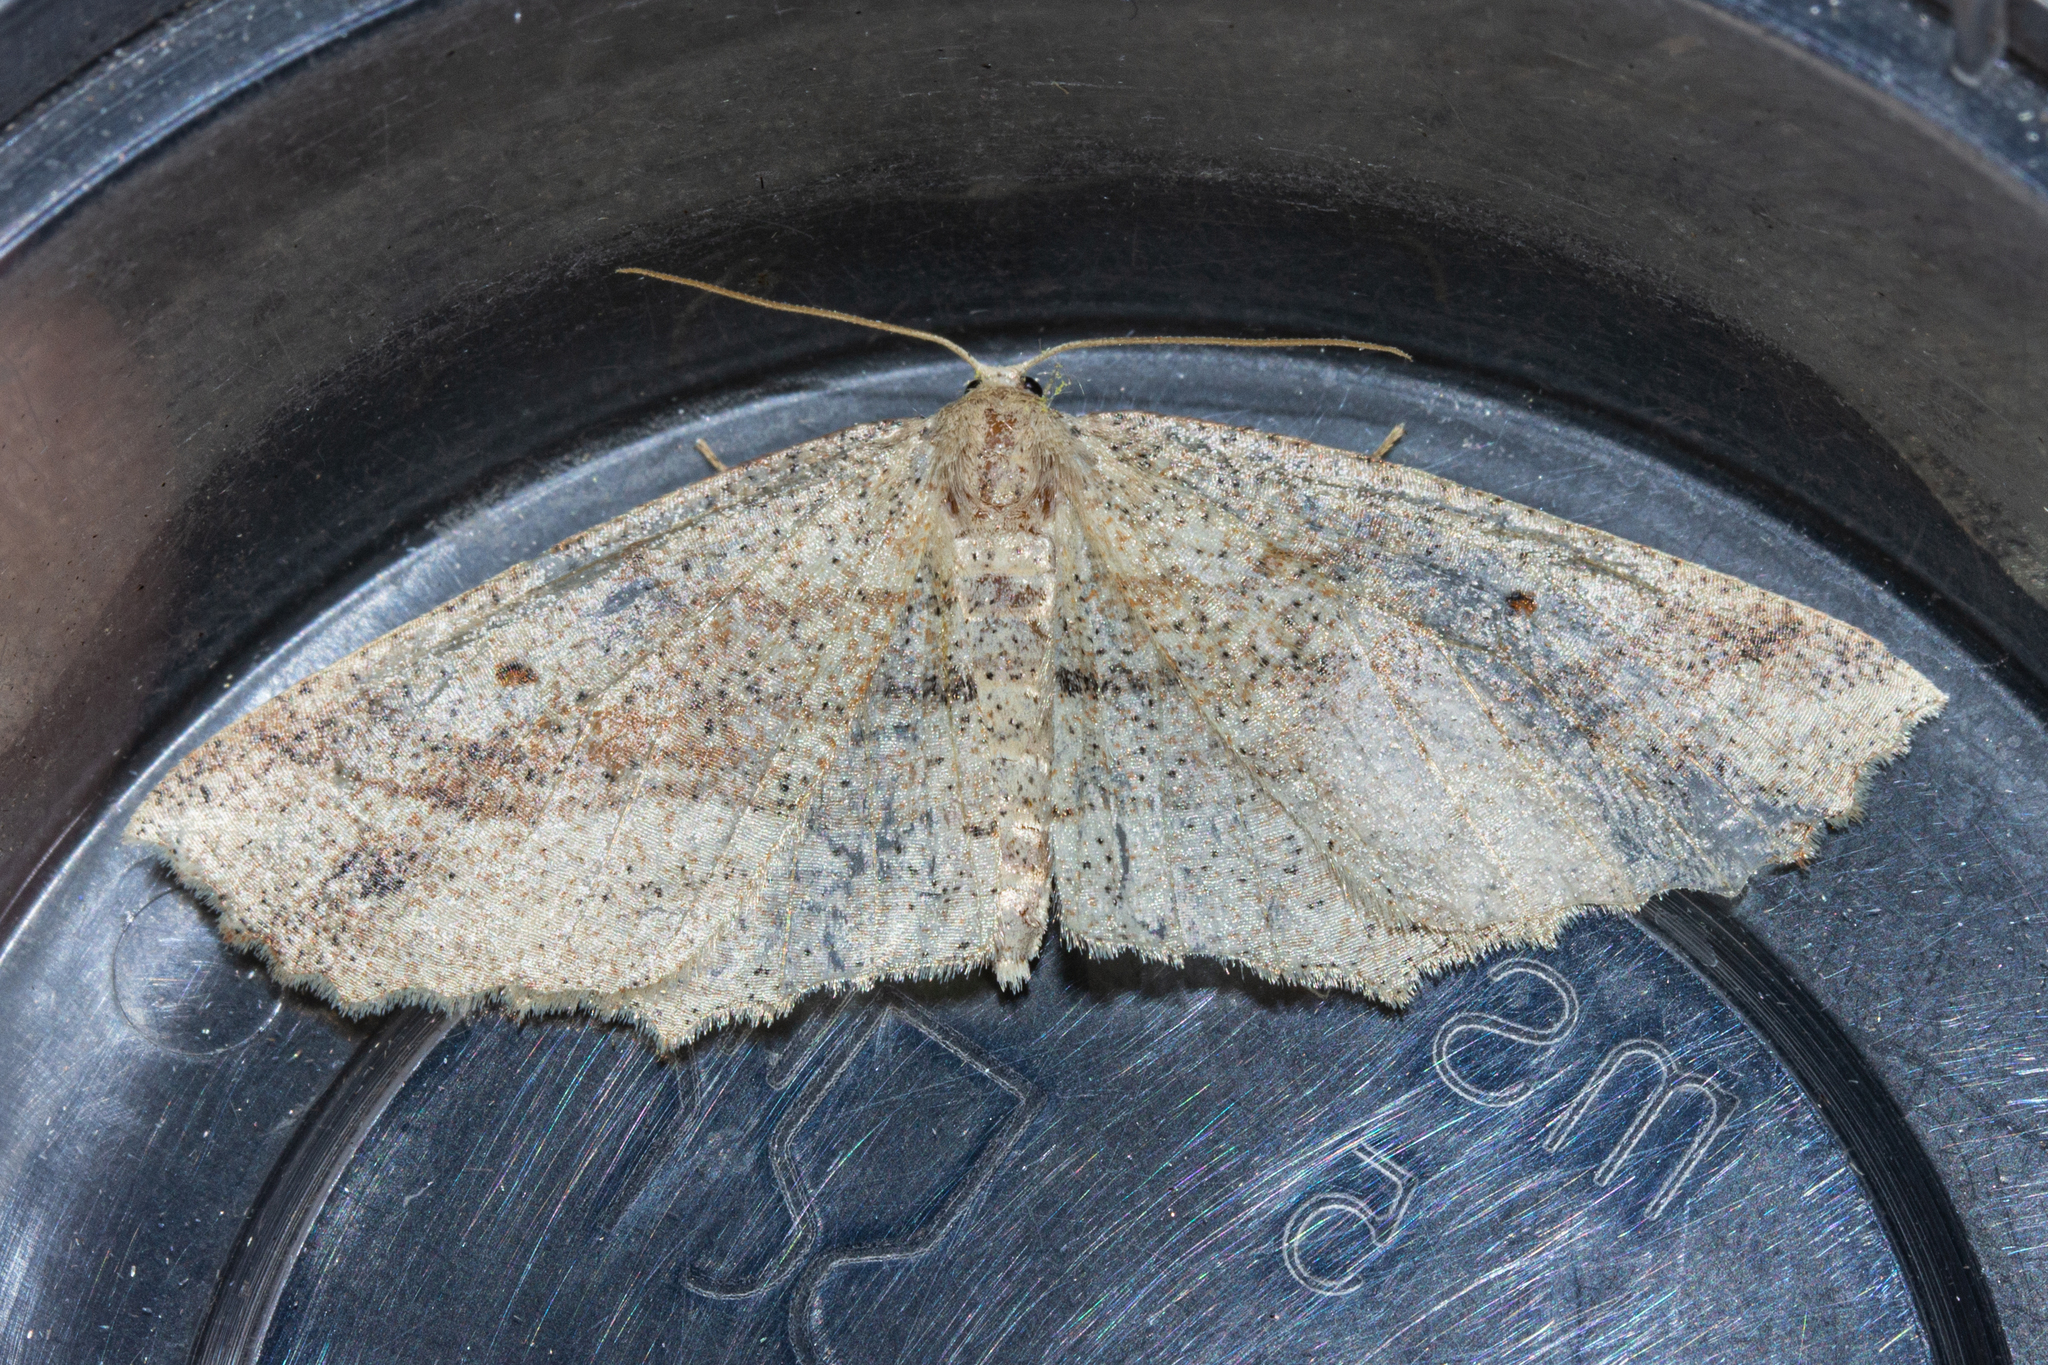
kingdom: Animalia
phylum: Arthropoda
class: Insecta
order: Lepidoptera
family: Geometridae
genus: Xyridacma
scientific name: Xyridacma veronicae
